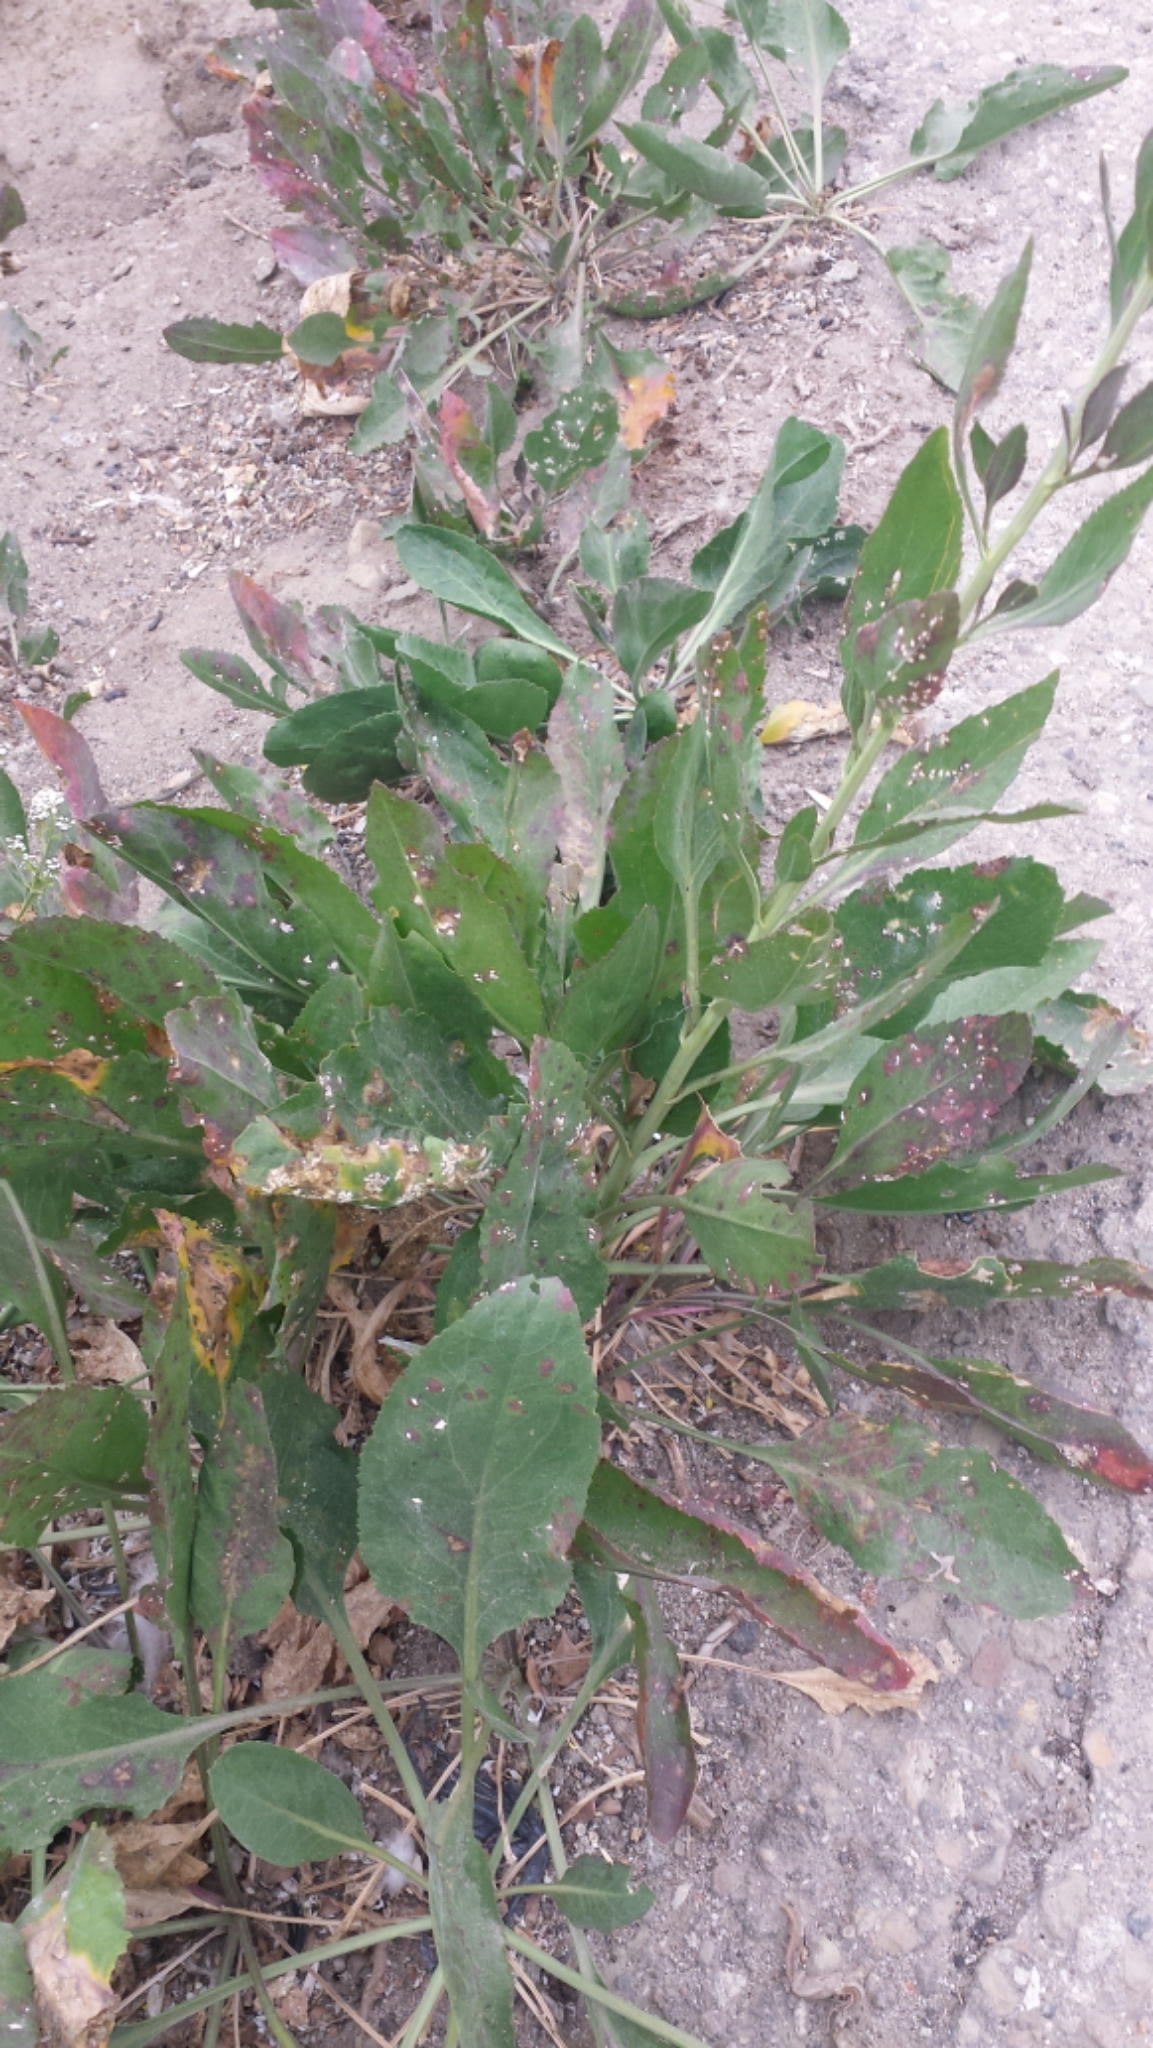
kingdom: Plantae
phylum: Tracheophyta
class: Magnoliopsida
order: Brassicales
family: Brassicaceae
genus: Lepidium
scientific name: Lepidium latifolium
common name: Dittander
